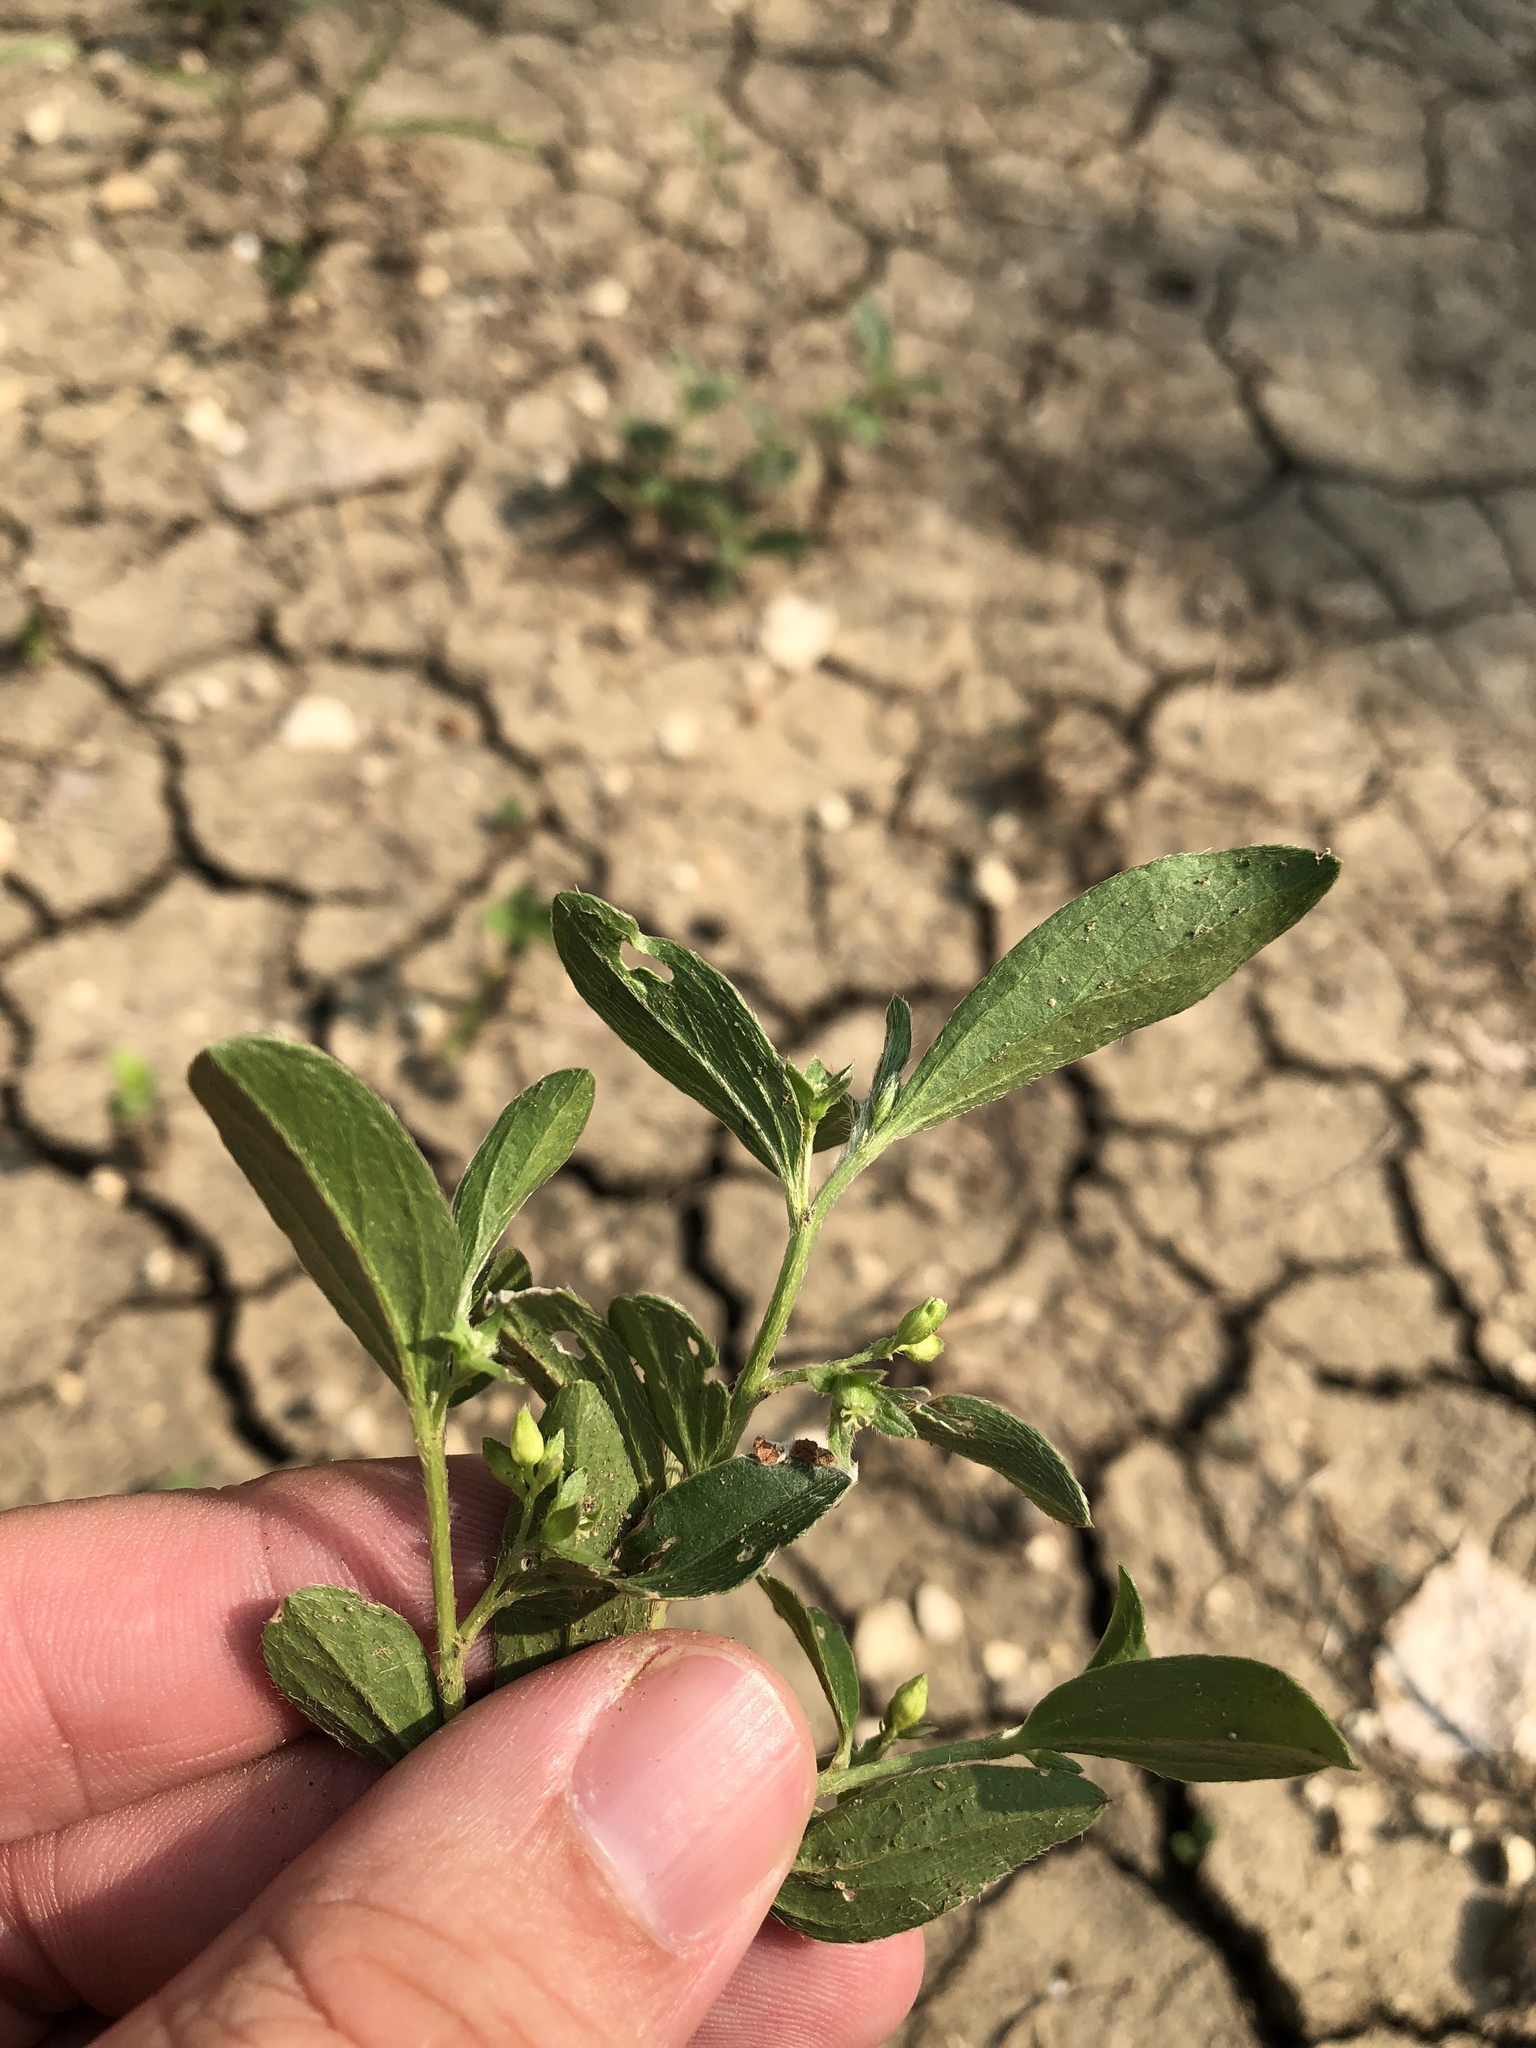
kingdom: Plantae
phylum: Tracheophyta
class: Magnoliopsida
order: Malpighiales
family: Euphorbiaceae
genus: Ditaxis
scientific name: Ditaxis humilis
